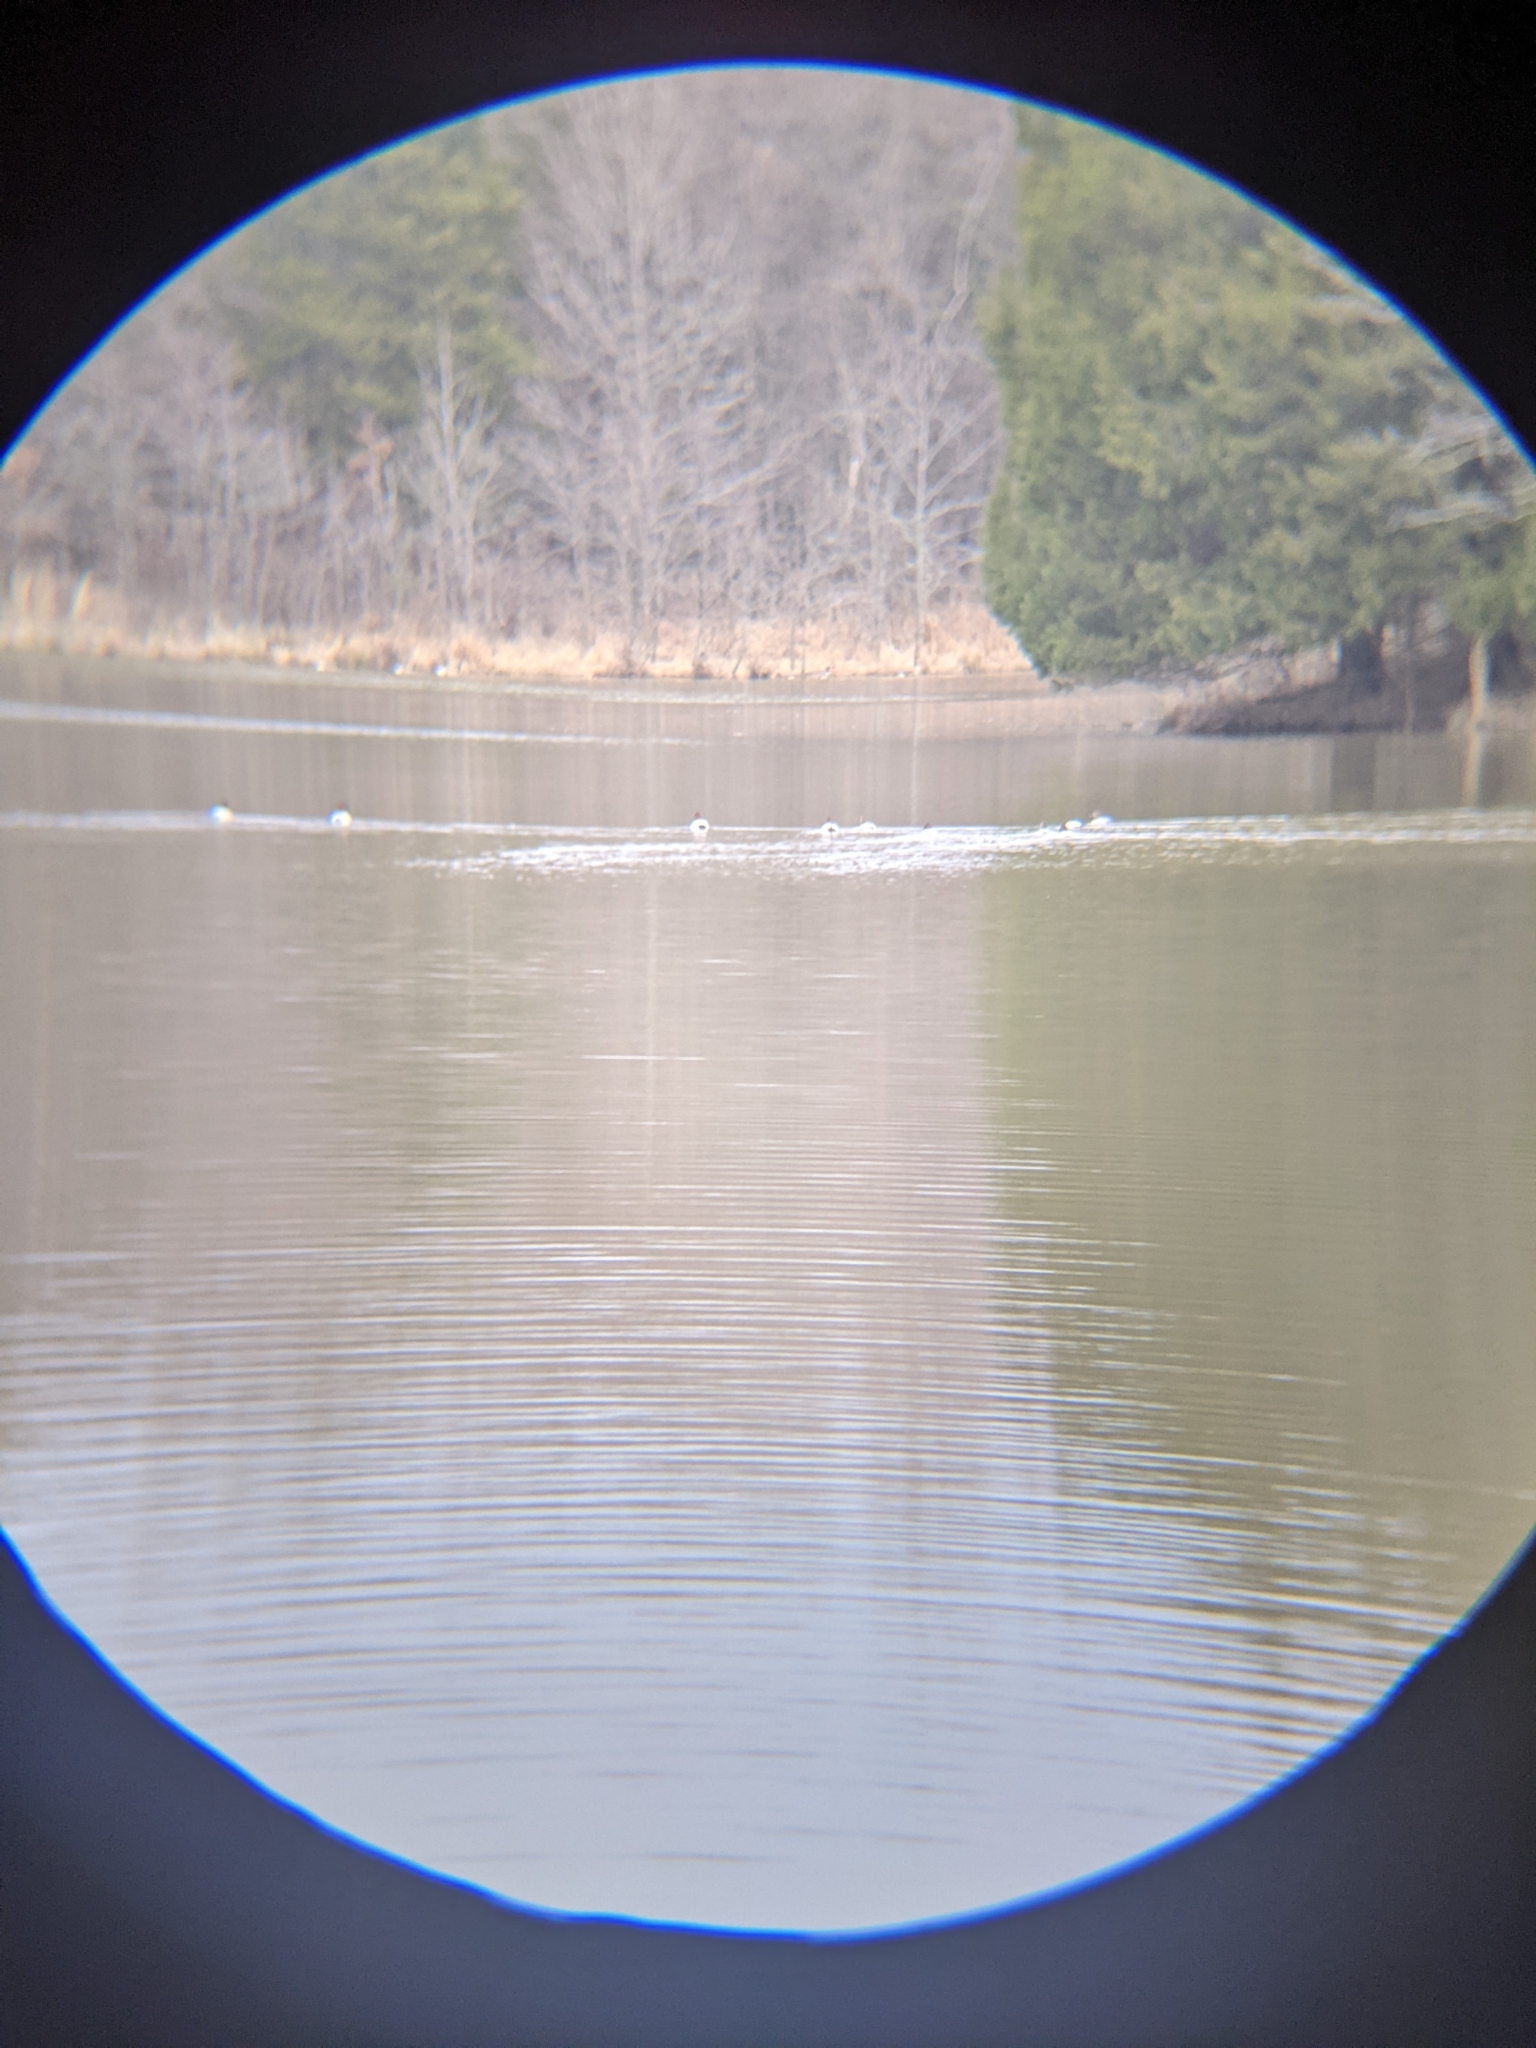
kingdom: Animalia
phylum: Chordata
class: Aves
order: Anseriformes
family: Anatidae
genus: Aythya
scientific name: Aythya valisineria
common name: Canvasback
